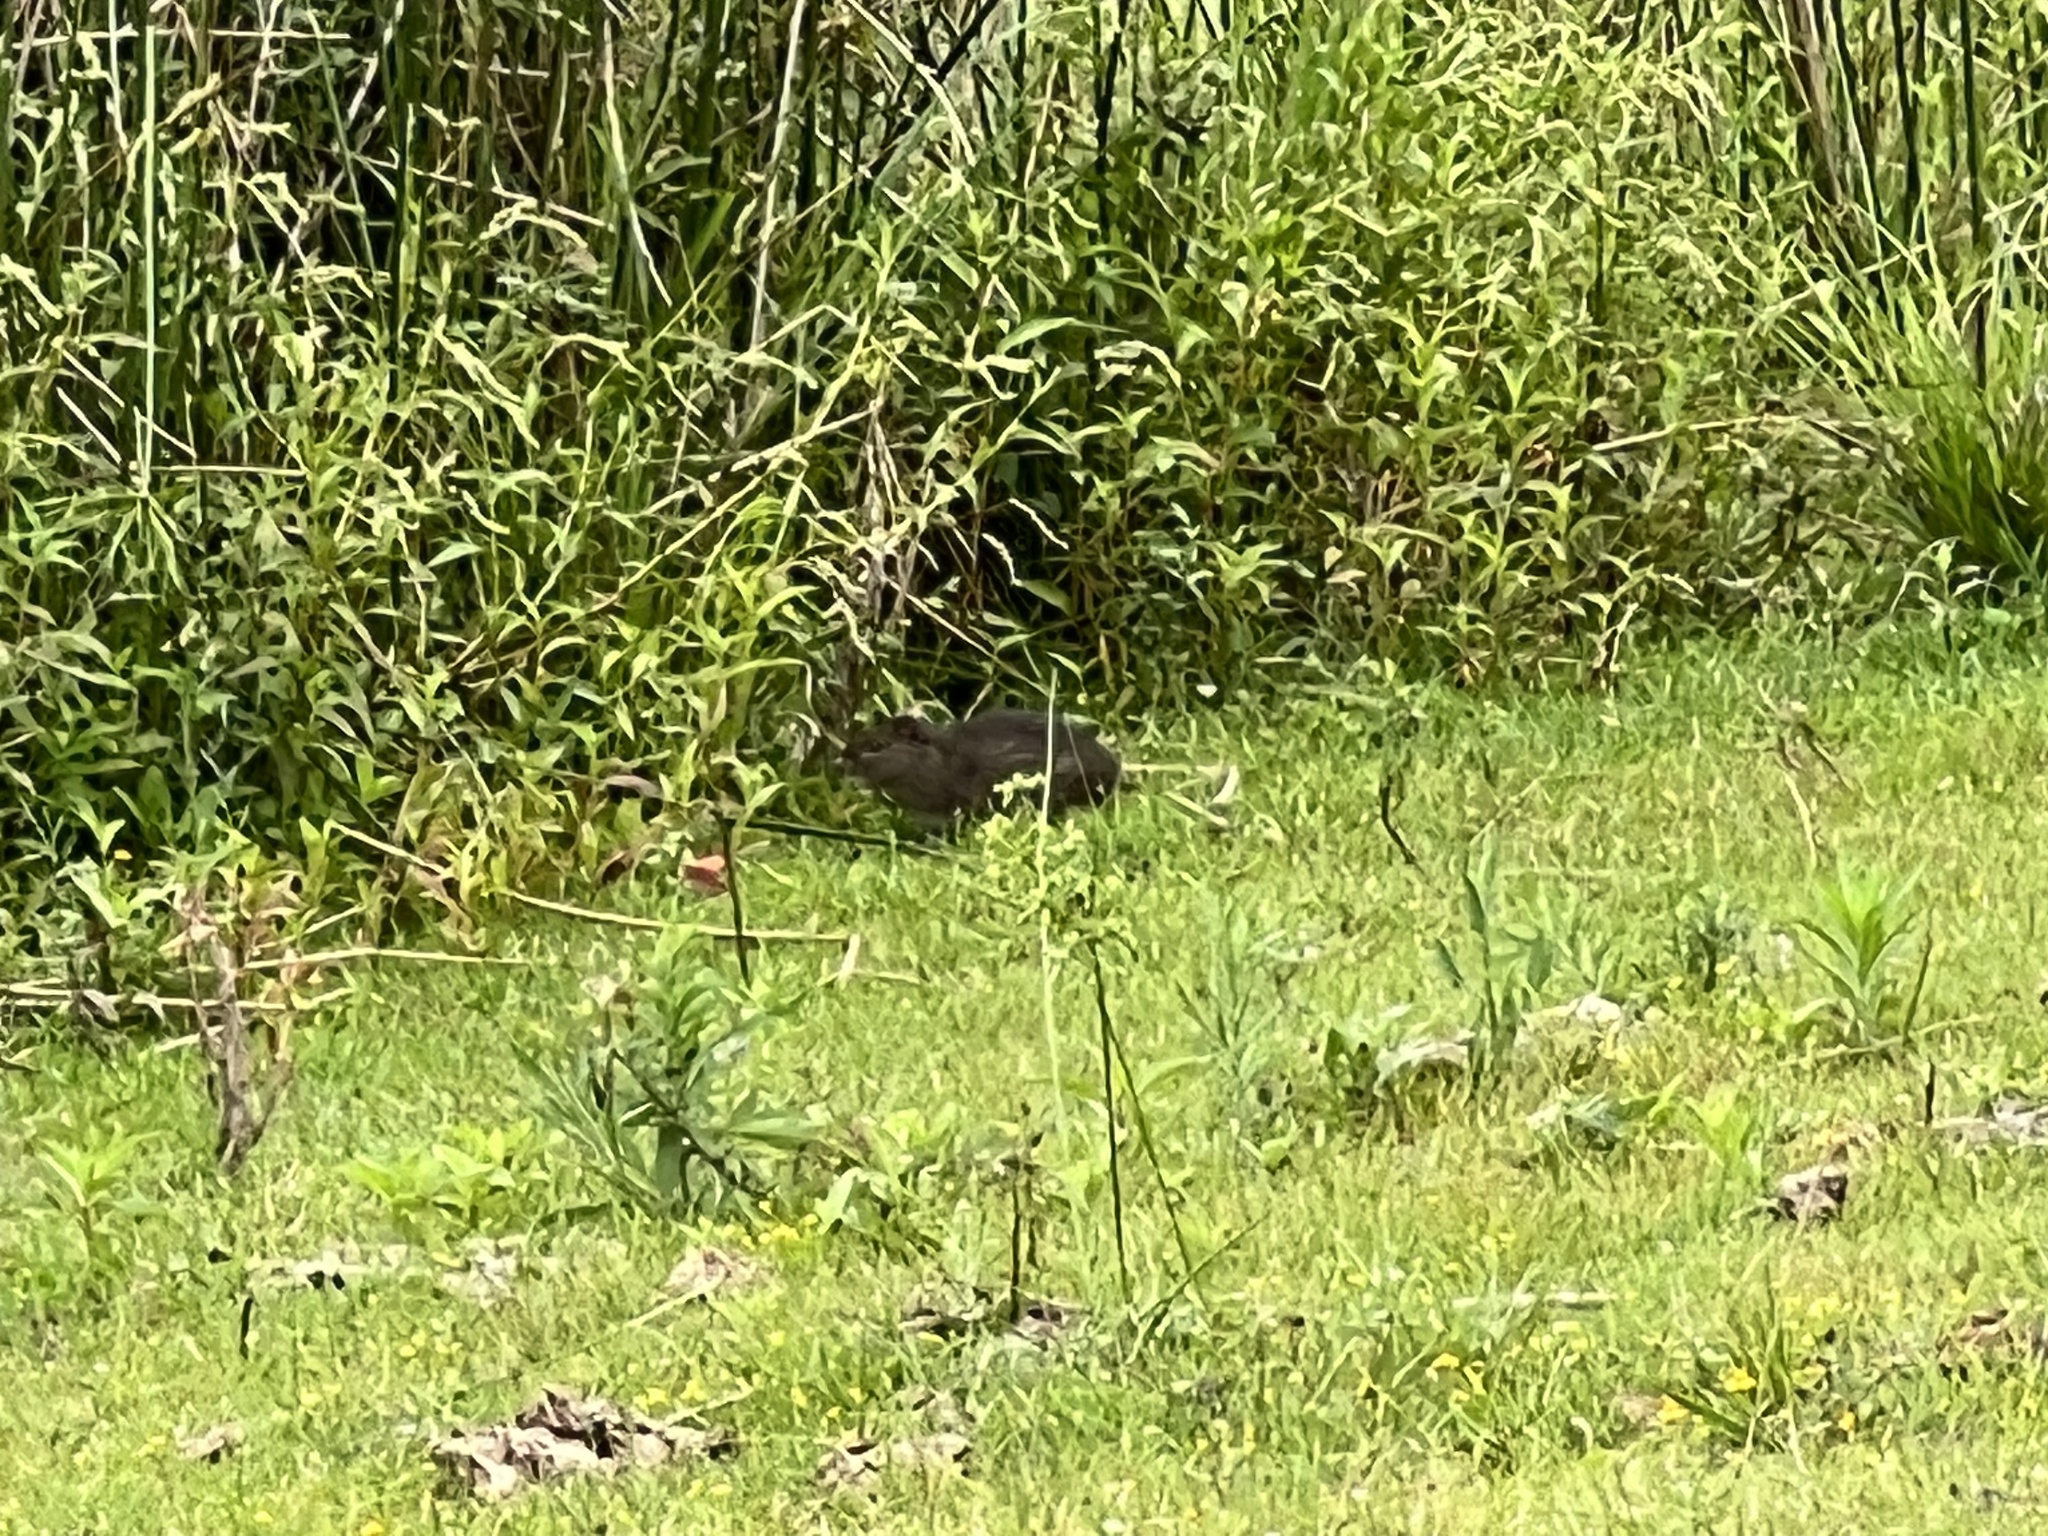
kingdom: Animalia
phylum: Chordata
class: Mammalia
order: Rodentia
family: Caviidae
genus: Cavia
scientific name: Cavia aperea
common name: Brazilian guinea pig
